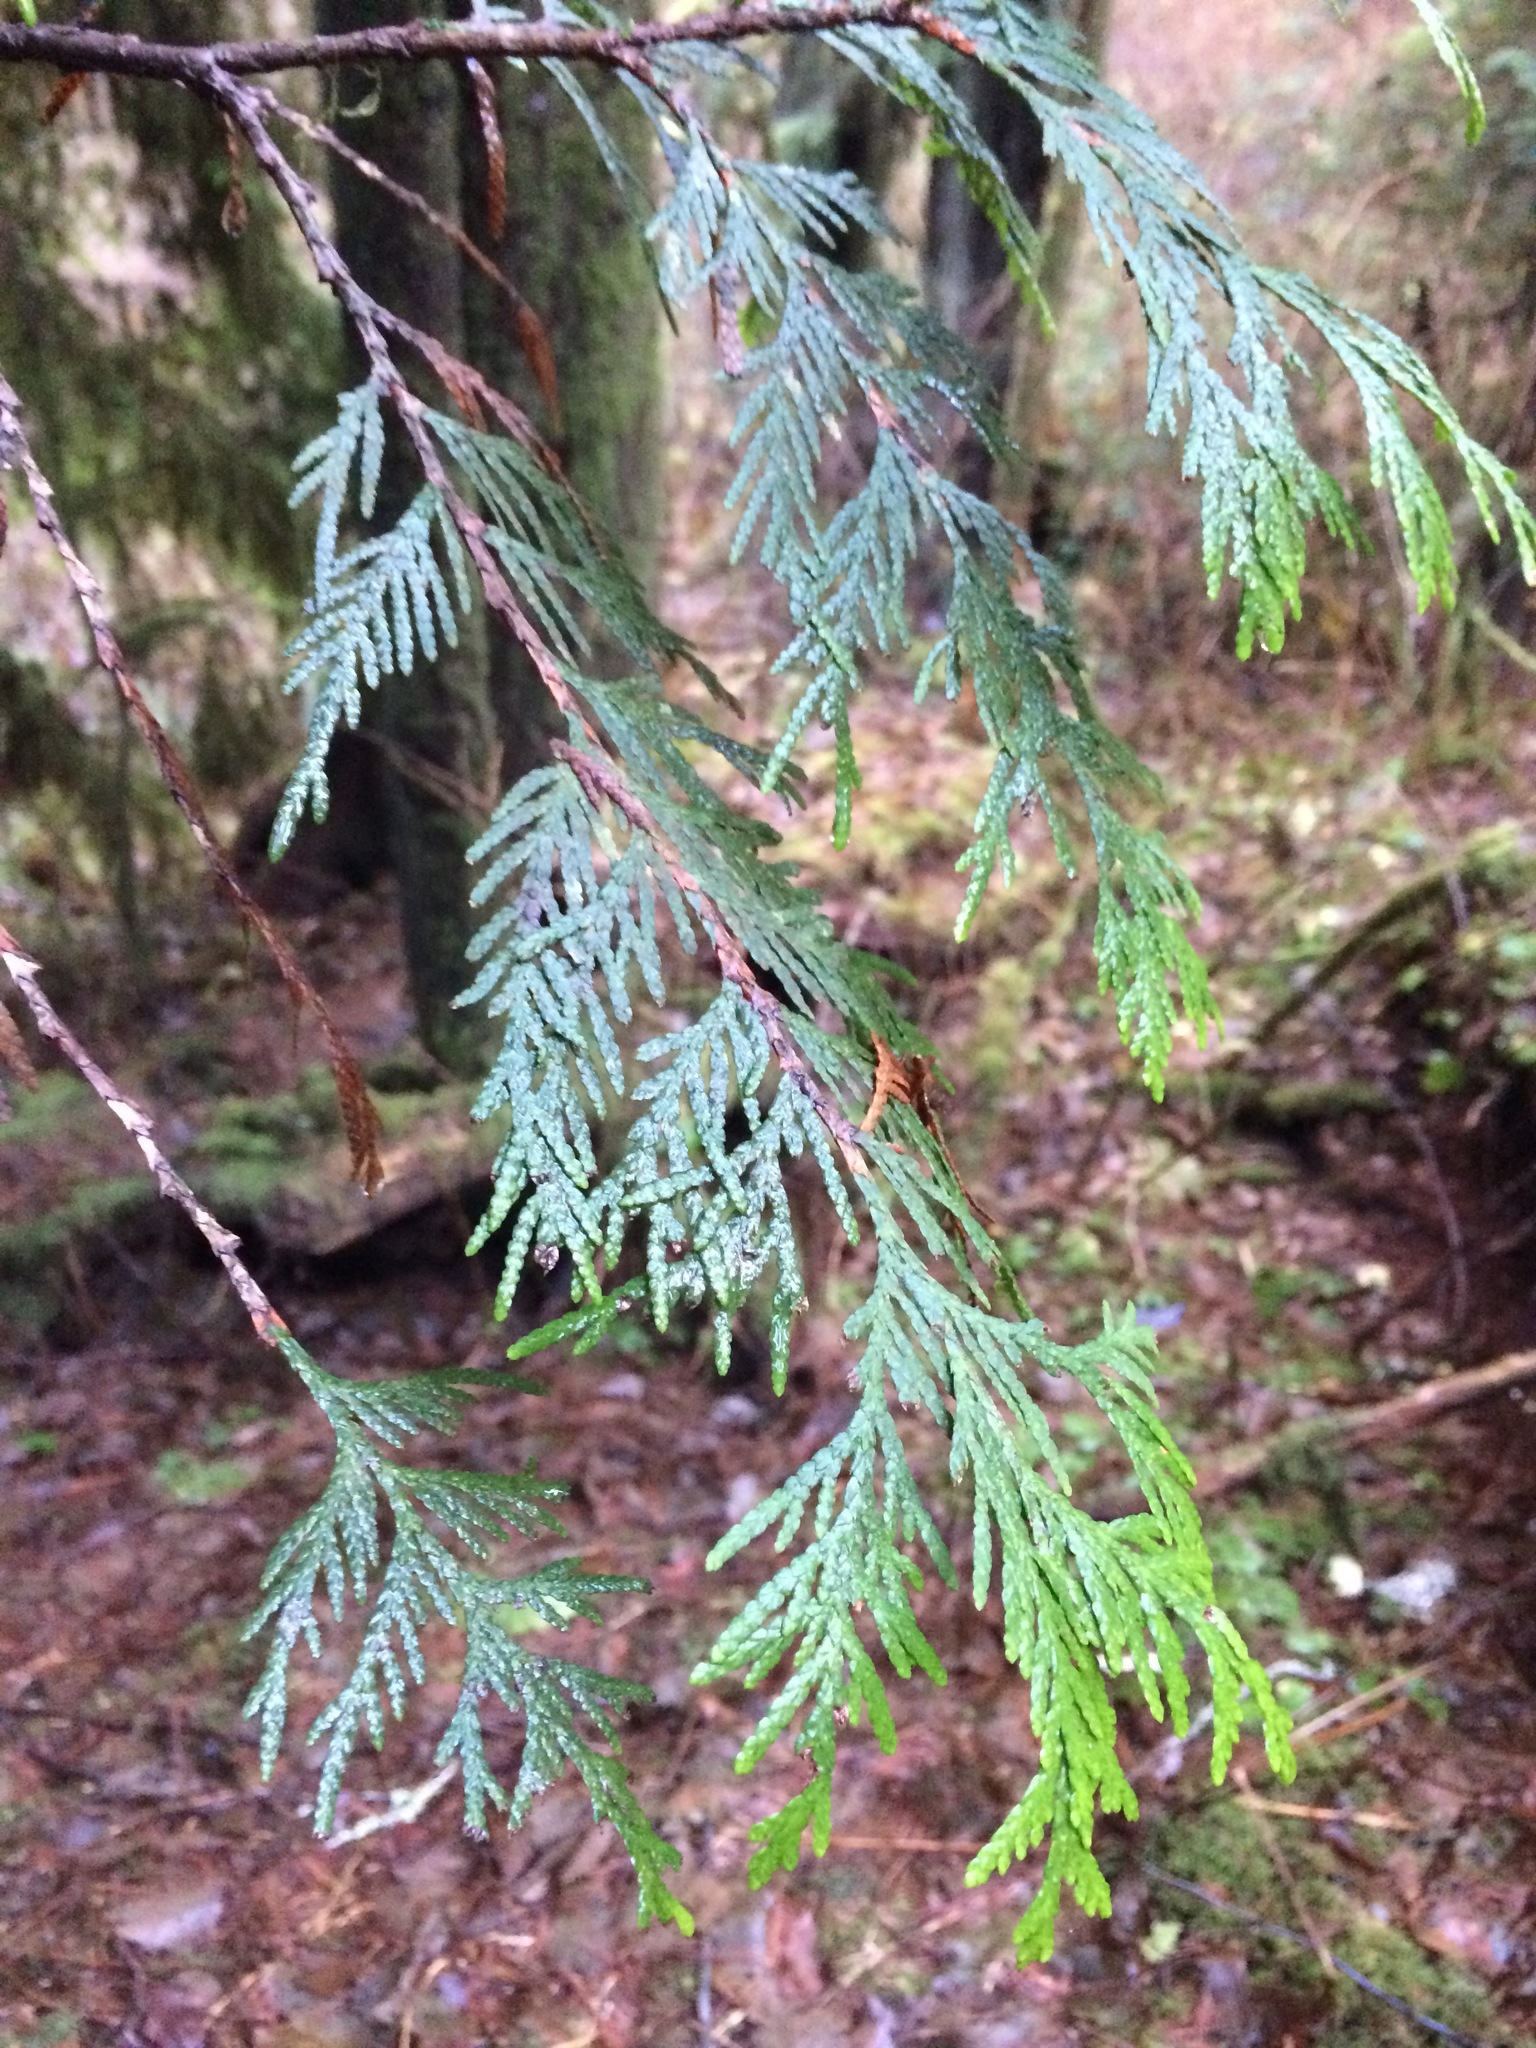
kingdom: Plantae
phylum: Tracheophyta
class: Pinopsida
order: Pinales
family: Cupressaceae
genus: Thuja
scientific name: Thuja plicata
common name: Western red-cedar
